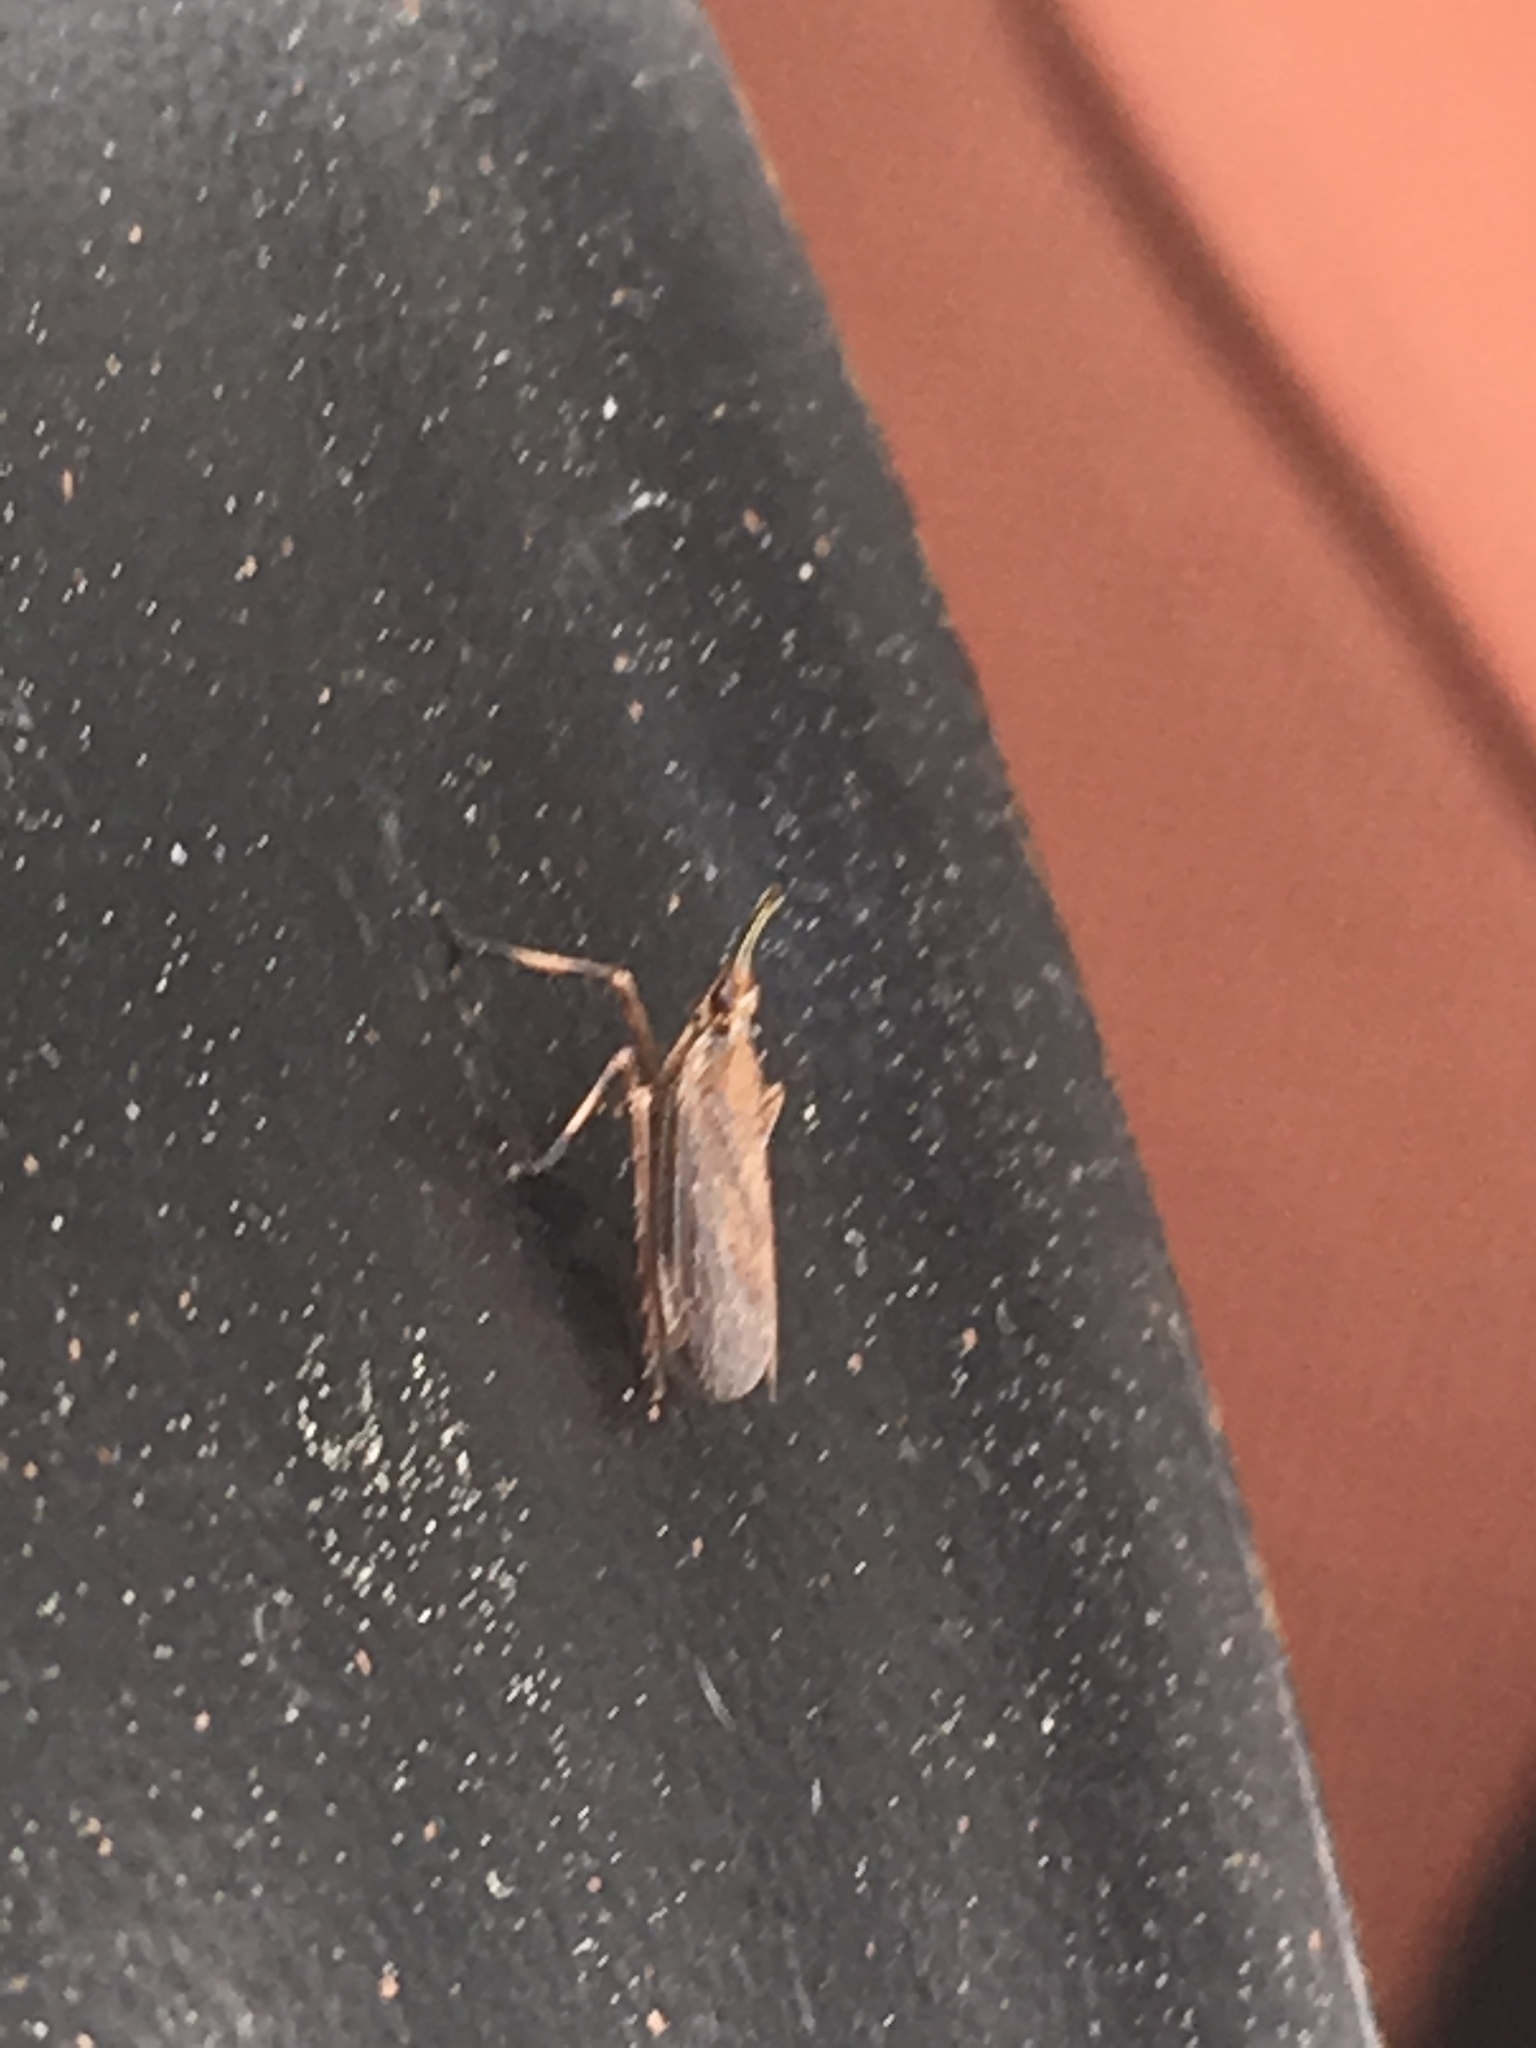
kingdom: Animalia
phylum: Arthropoda
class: Insecta
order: Hemiptera
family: Dictyopharidae
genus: Scolops
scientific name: Scolops sulcipes
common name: Partridge planthopper
